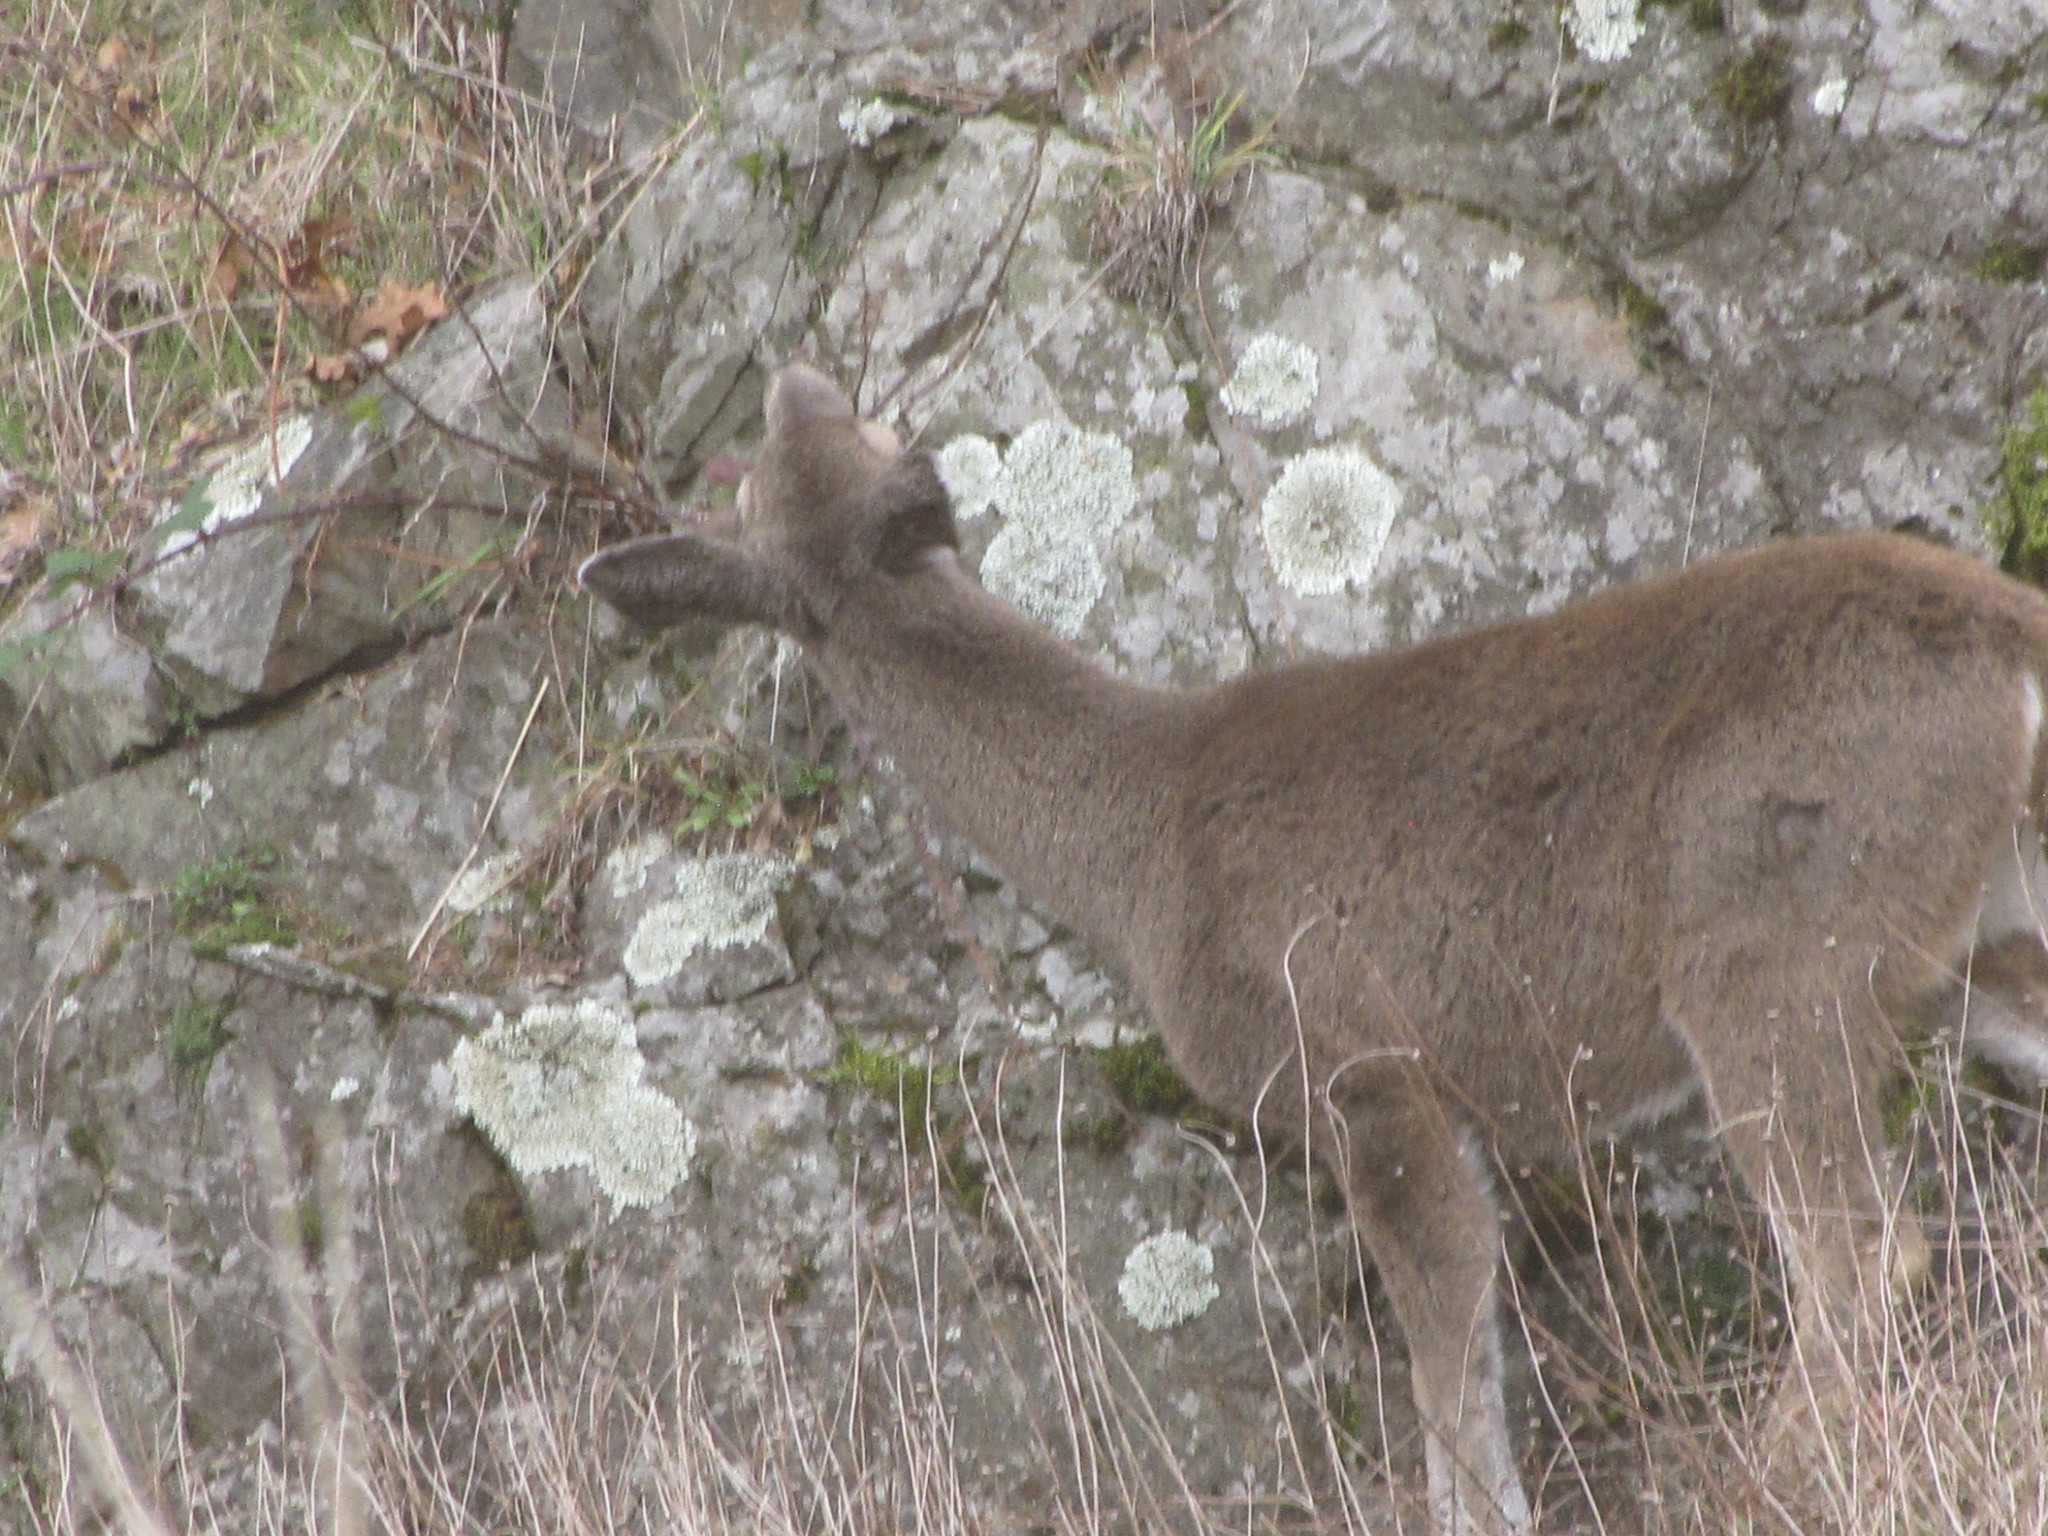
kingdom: Animalia
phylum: Chordata
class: Mammalia
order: Artiodactyla
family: Cervidae
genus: Odocoileus
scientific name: Odocoileus hemionus
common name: Mule deer
